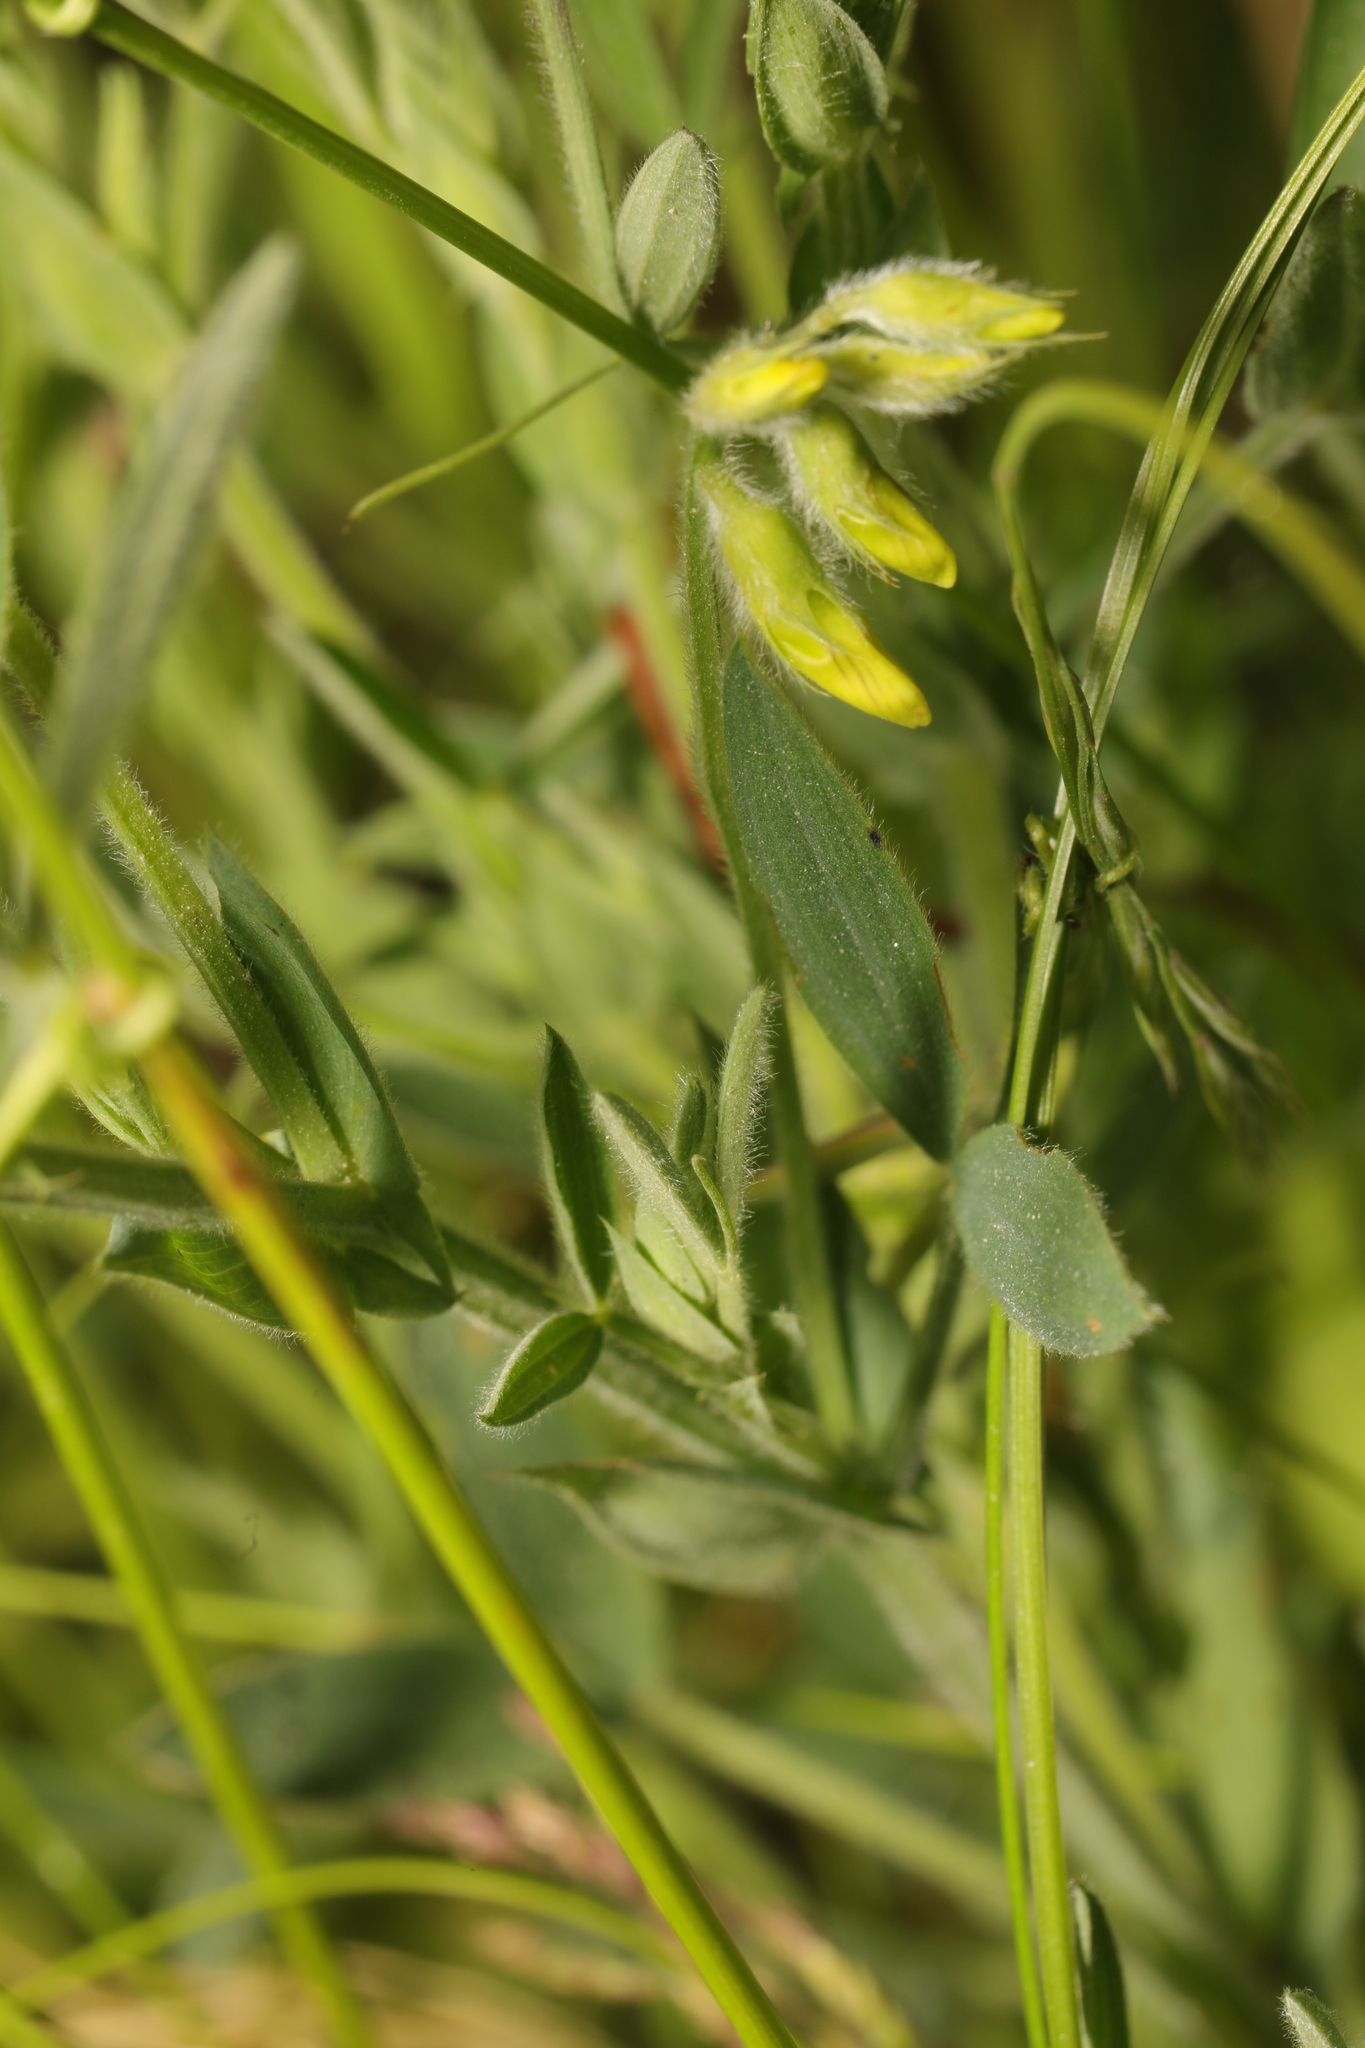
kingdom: Plantae
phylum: Tracheophyta
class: Magnoliopsida
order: Fabales
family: Fabaceae
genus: Lathyrus
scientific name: Lathyrus pratensis
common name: Meadow vetchling
